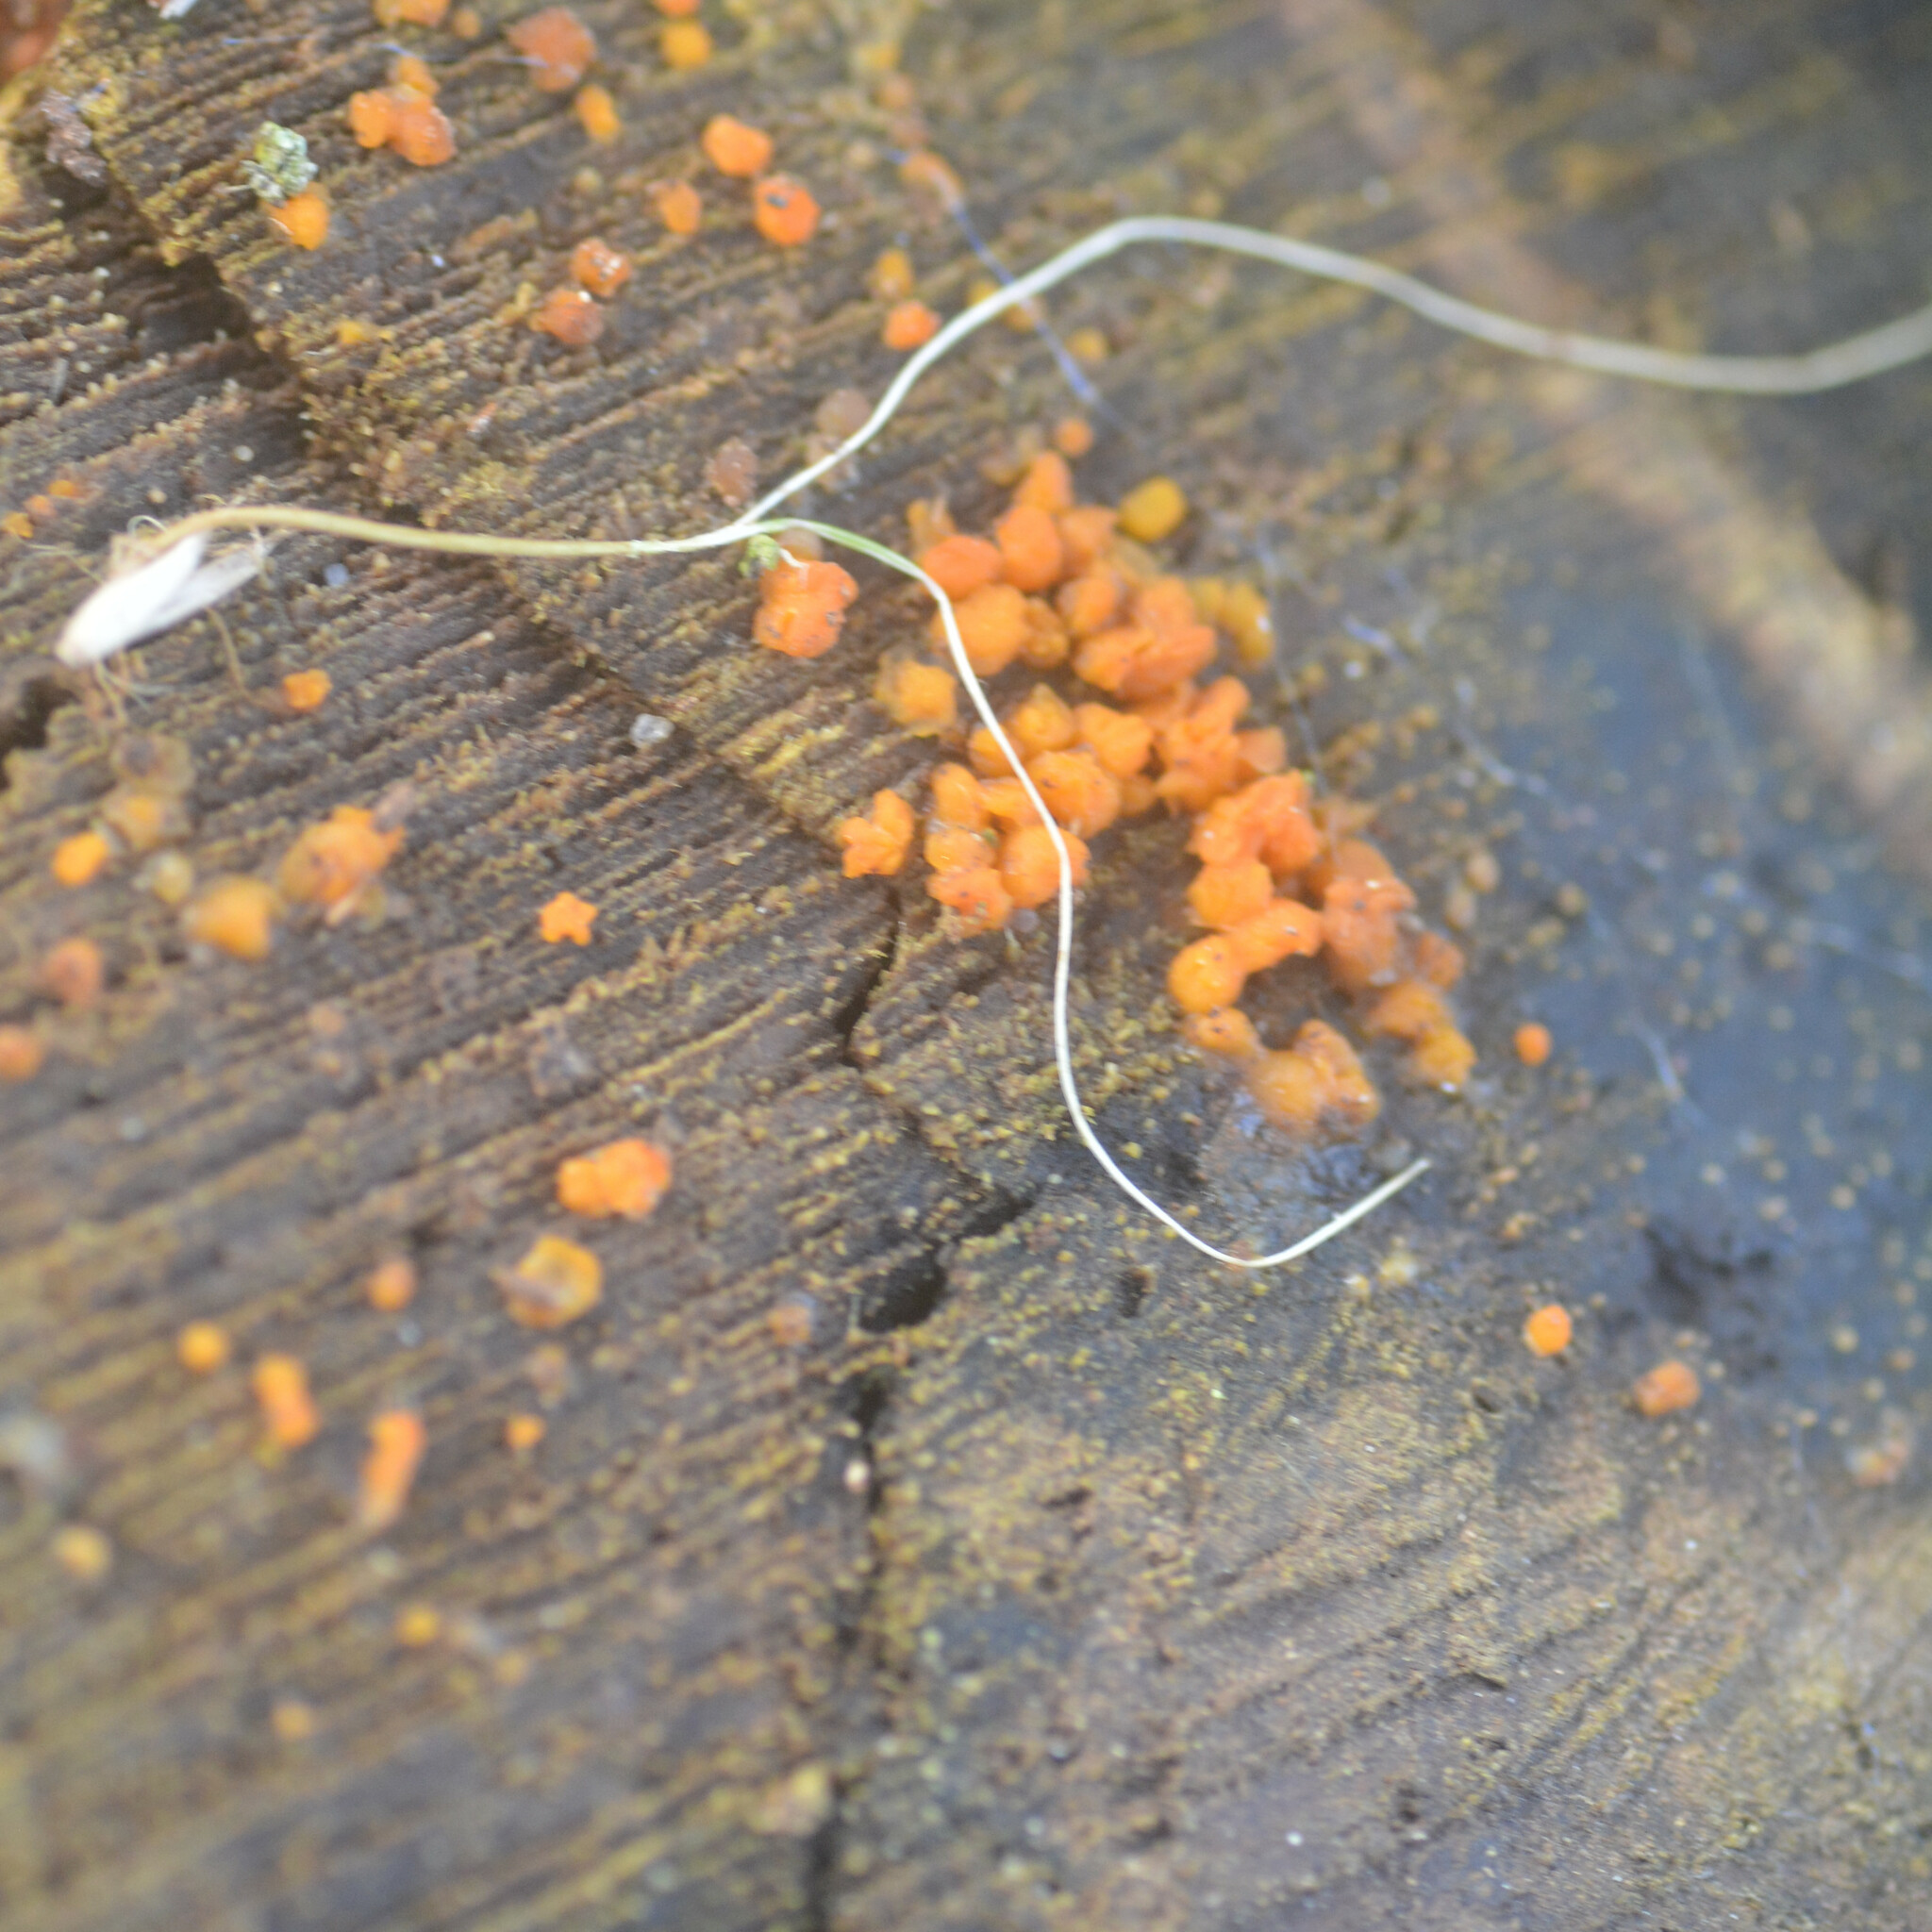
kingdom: Fungi
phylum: Basidiomycota
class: Dacrymycetes
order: Dacrymycetales
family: Dacrymycetaceae
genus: Dacrymyces
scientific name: Dacrymyces stillatus
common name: Common jelly spot
